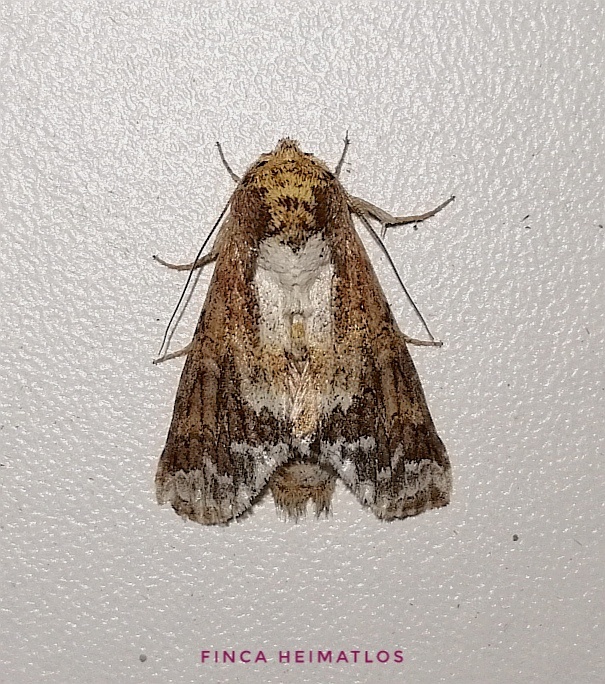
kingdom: Animalia
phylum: Arthropoda
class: Insecta
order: Lepidoptera
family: Notodontidae
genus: Sericochroa
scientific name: Sericochroa lauta
